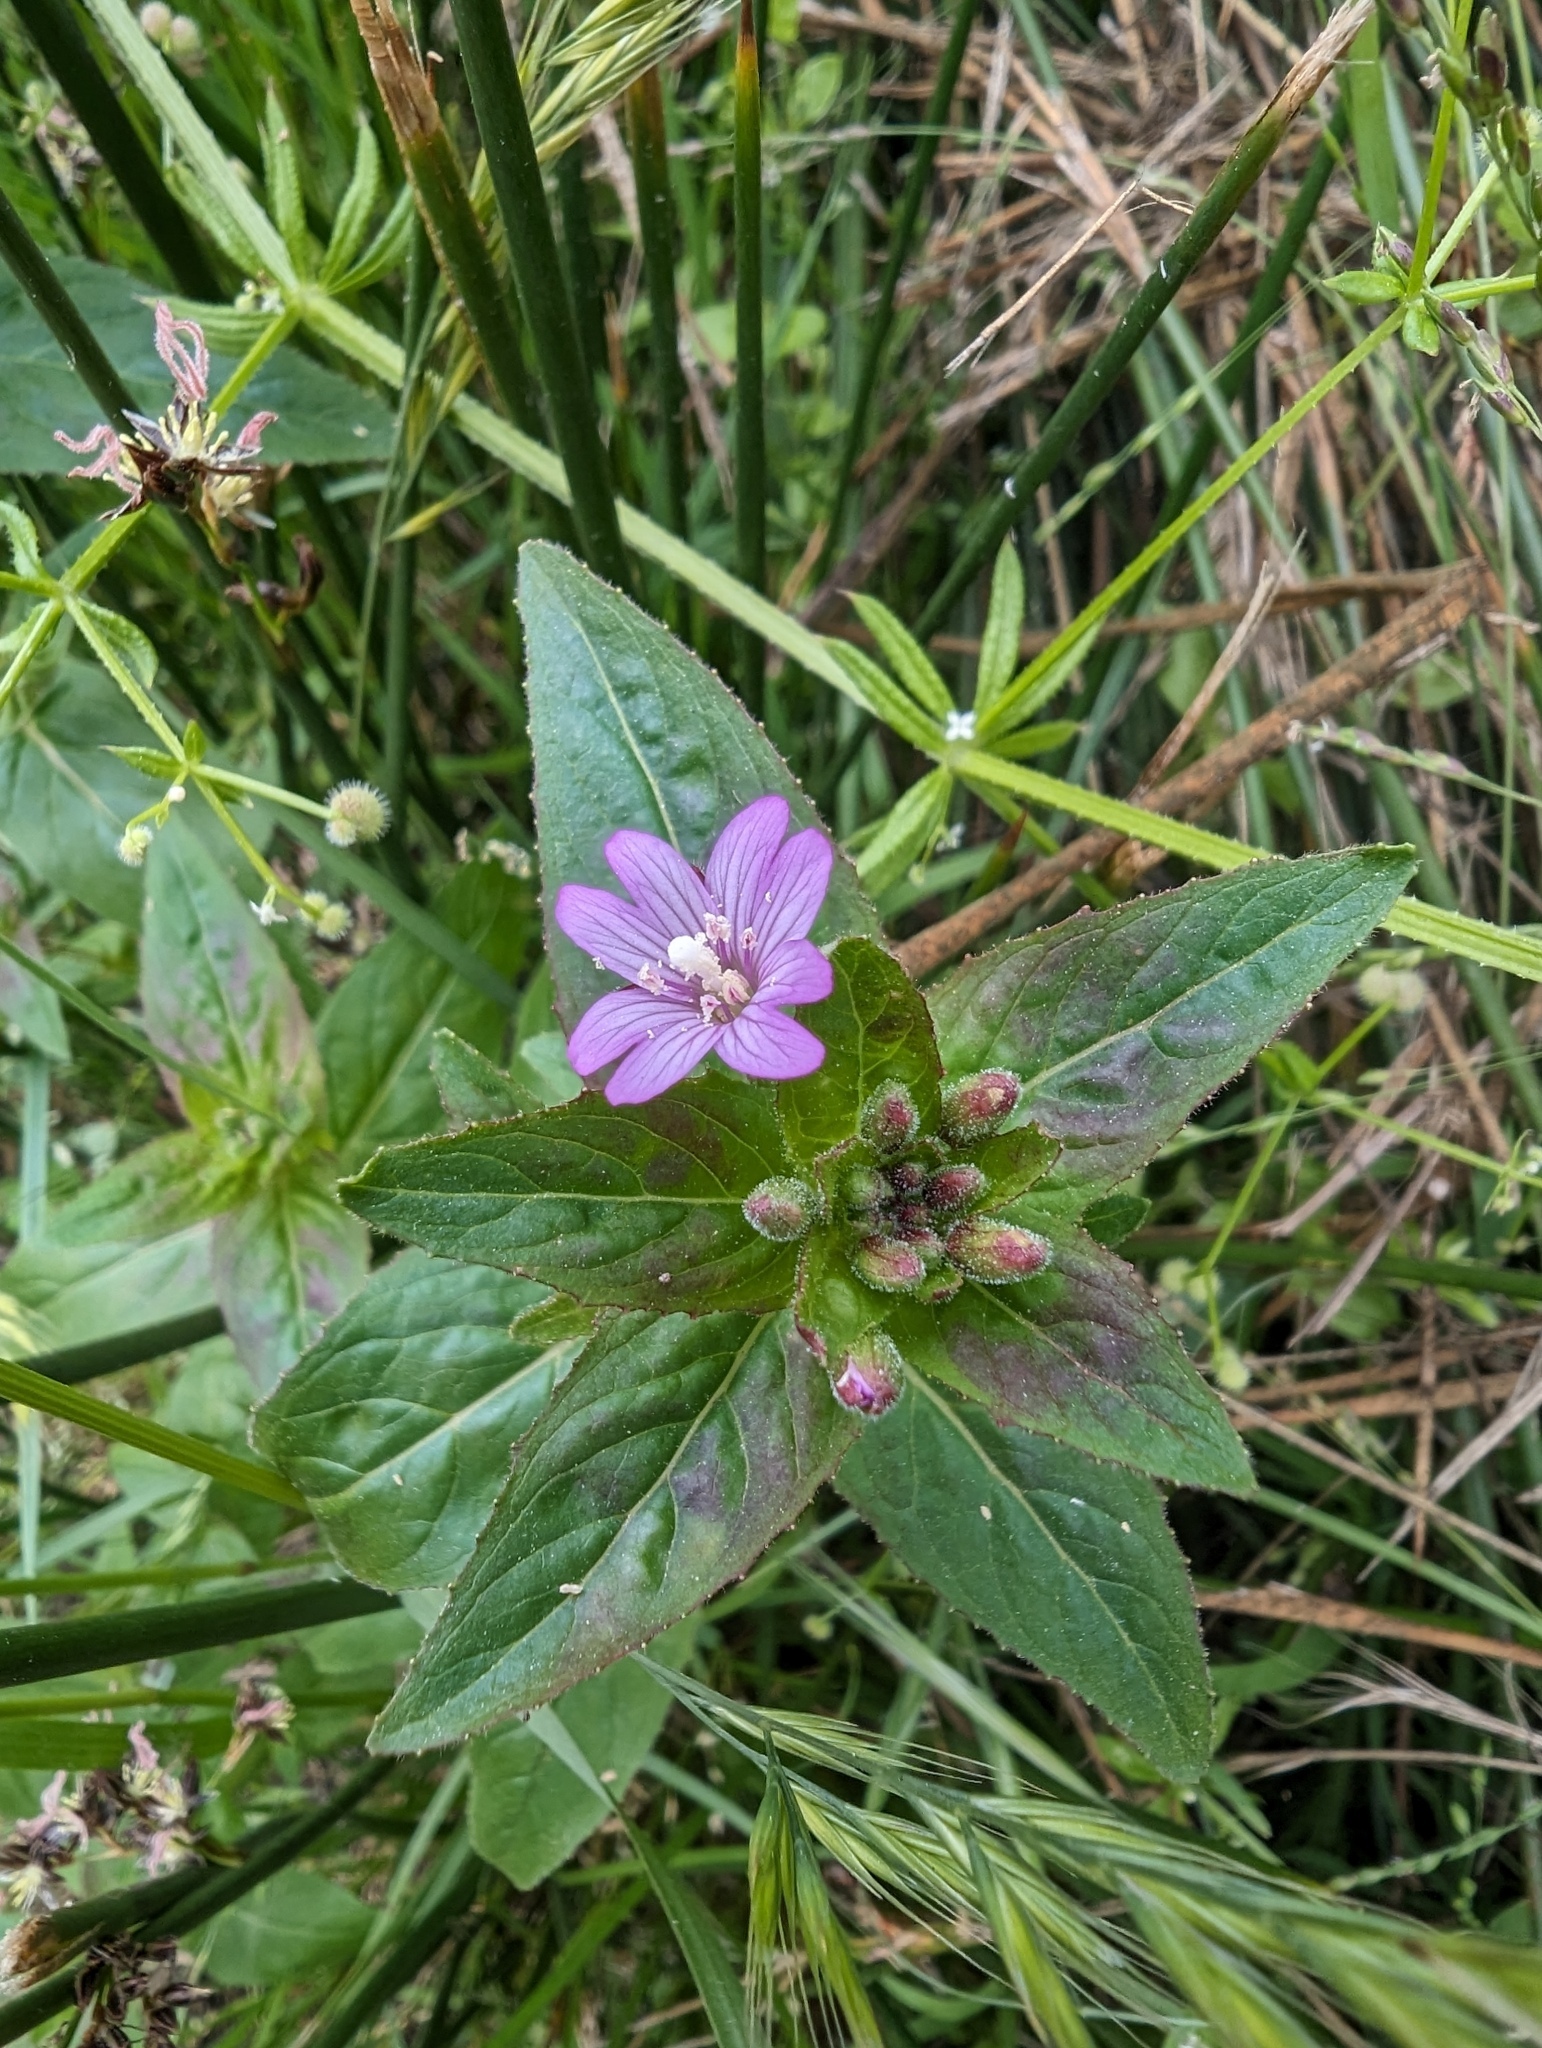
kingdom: Plantae
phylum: Tracheophyta
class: Magnoliopsida
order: Myrtales
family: Onagraceae
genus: Epilobium
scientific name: Epilobium ciliatum
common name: American willowherb
